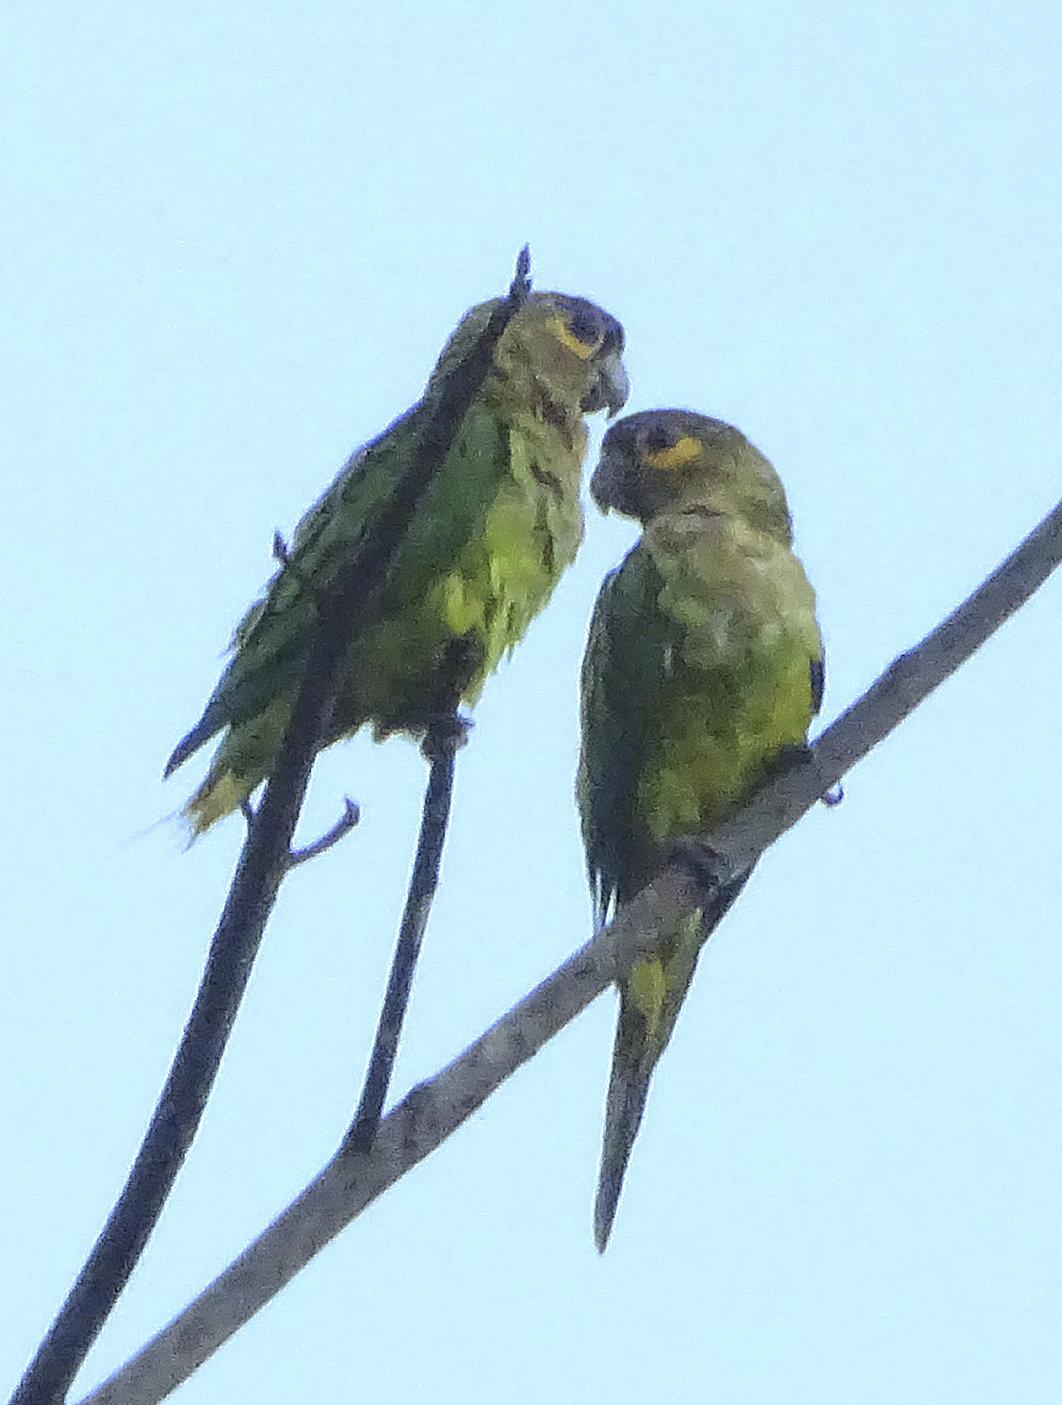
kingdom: Animalia
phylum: Chordata
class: Aves
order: Psittaciformes
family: Psittacidae
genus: Aratinga
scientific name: Aratinga pertinax
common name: Brown-throated parakeet
